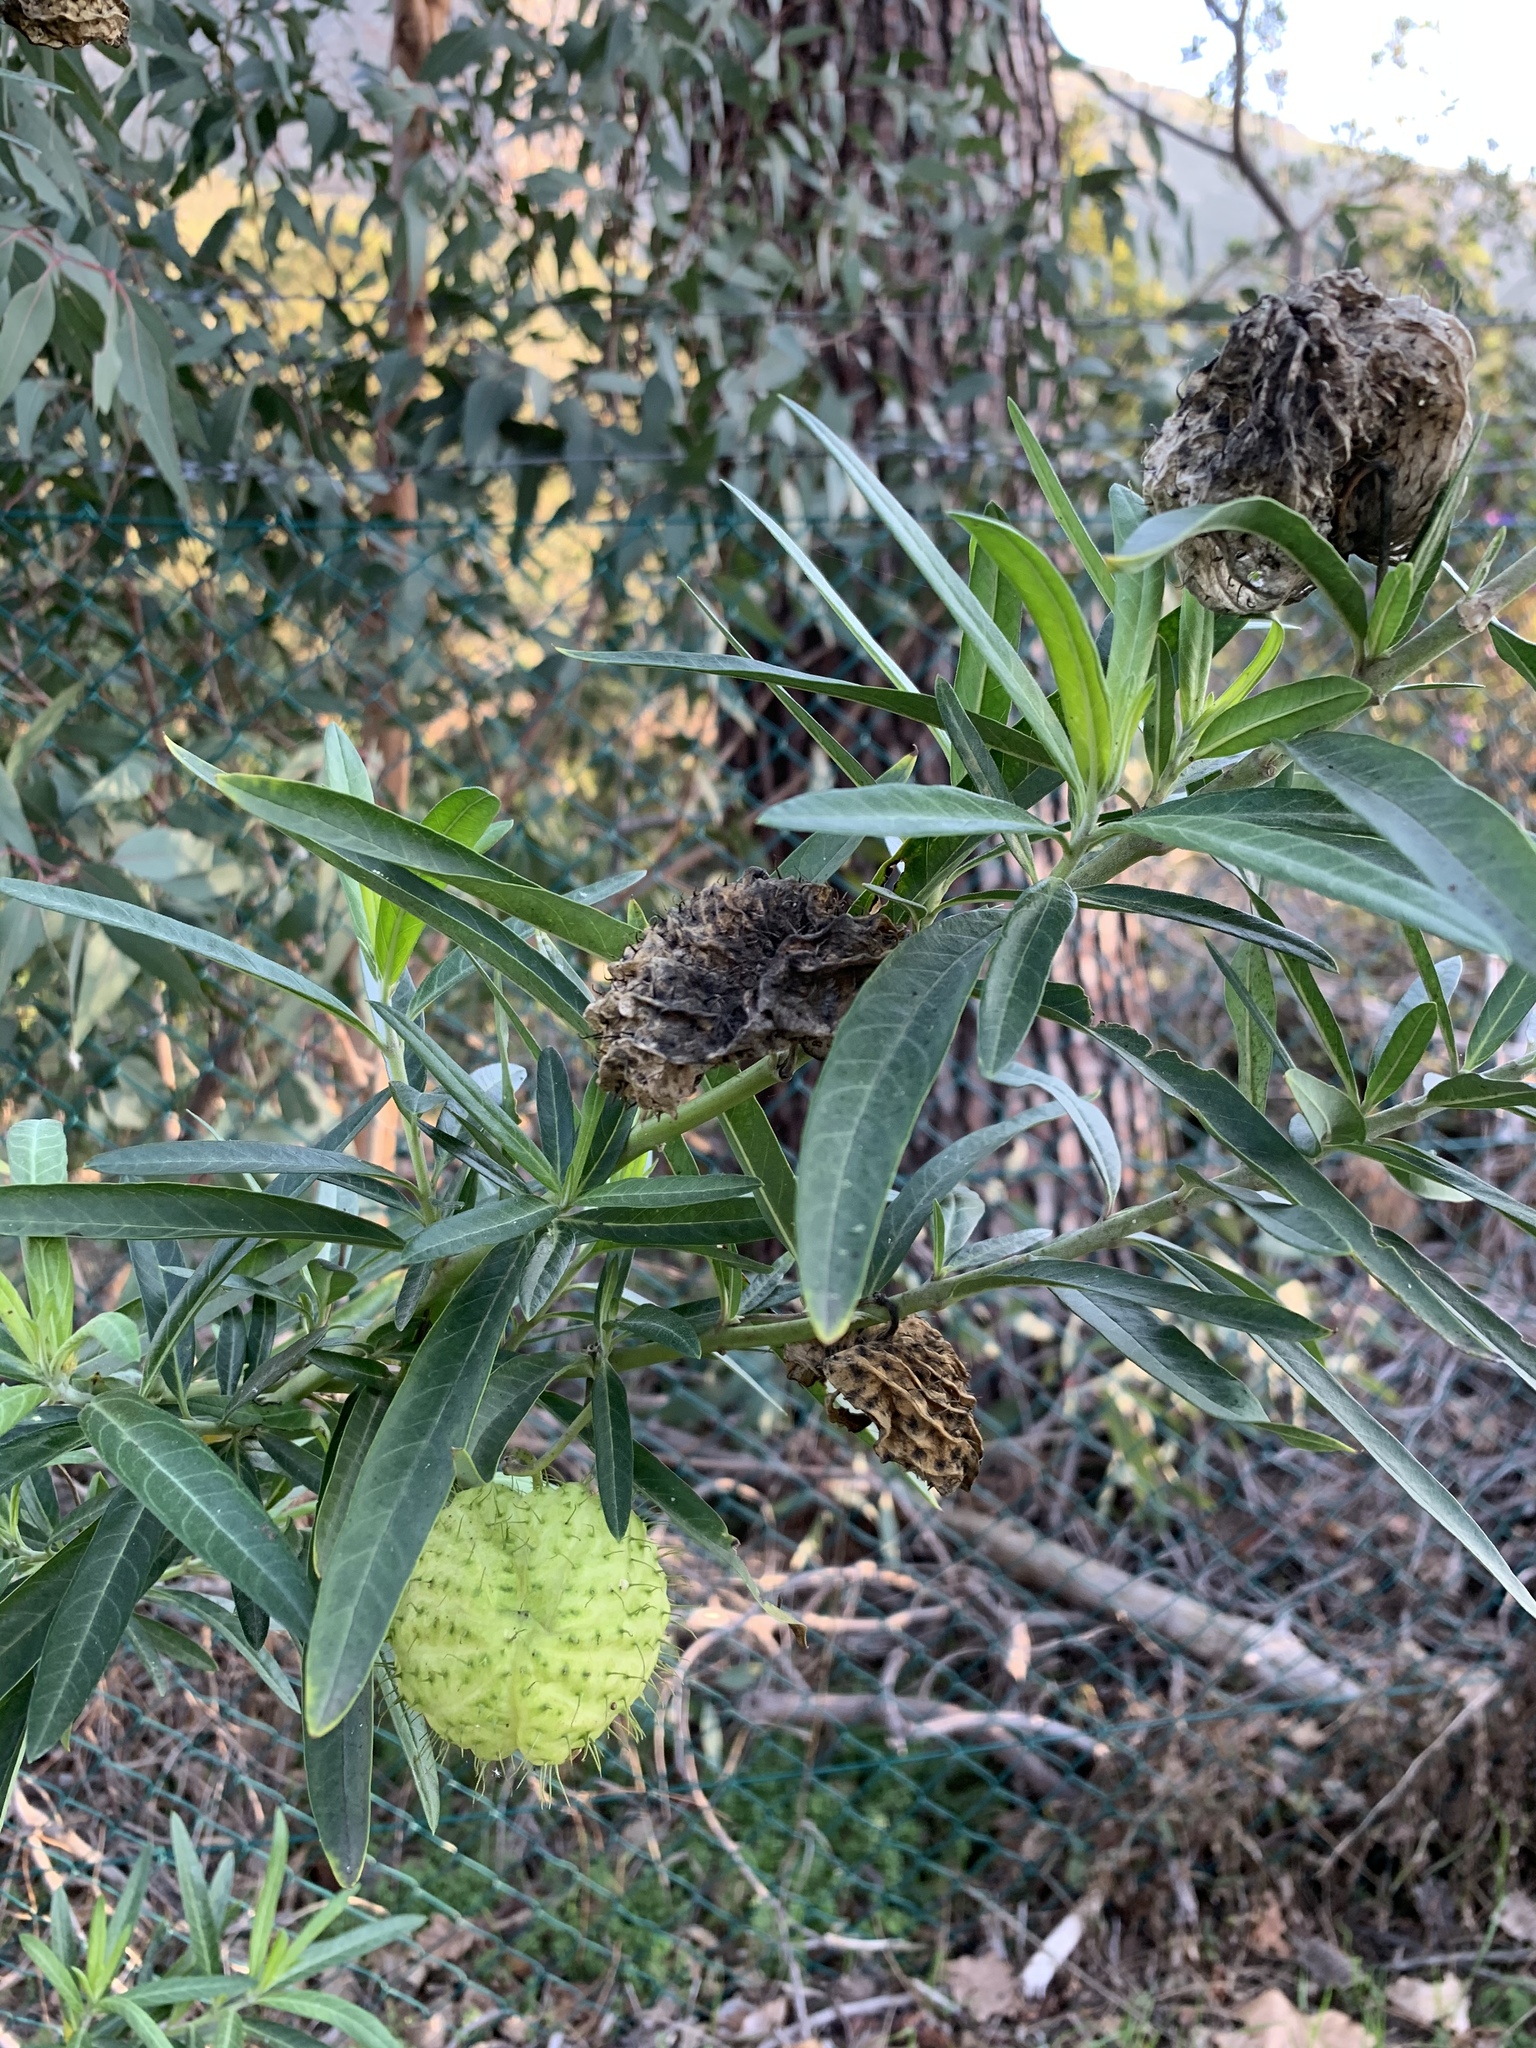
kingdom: Plantae
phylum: Tracheophyta
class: Magnoliopsida
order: Gentianales
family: Apocynaceae
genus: Gomphocarpus
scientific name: Gomphocarpus physocarpus
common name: Balloon cotton bush
